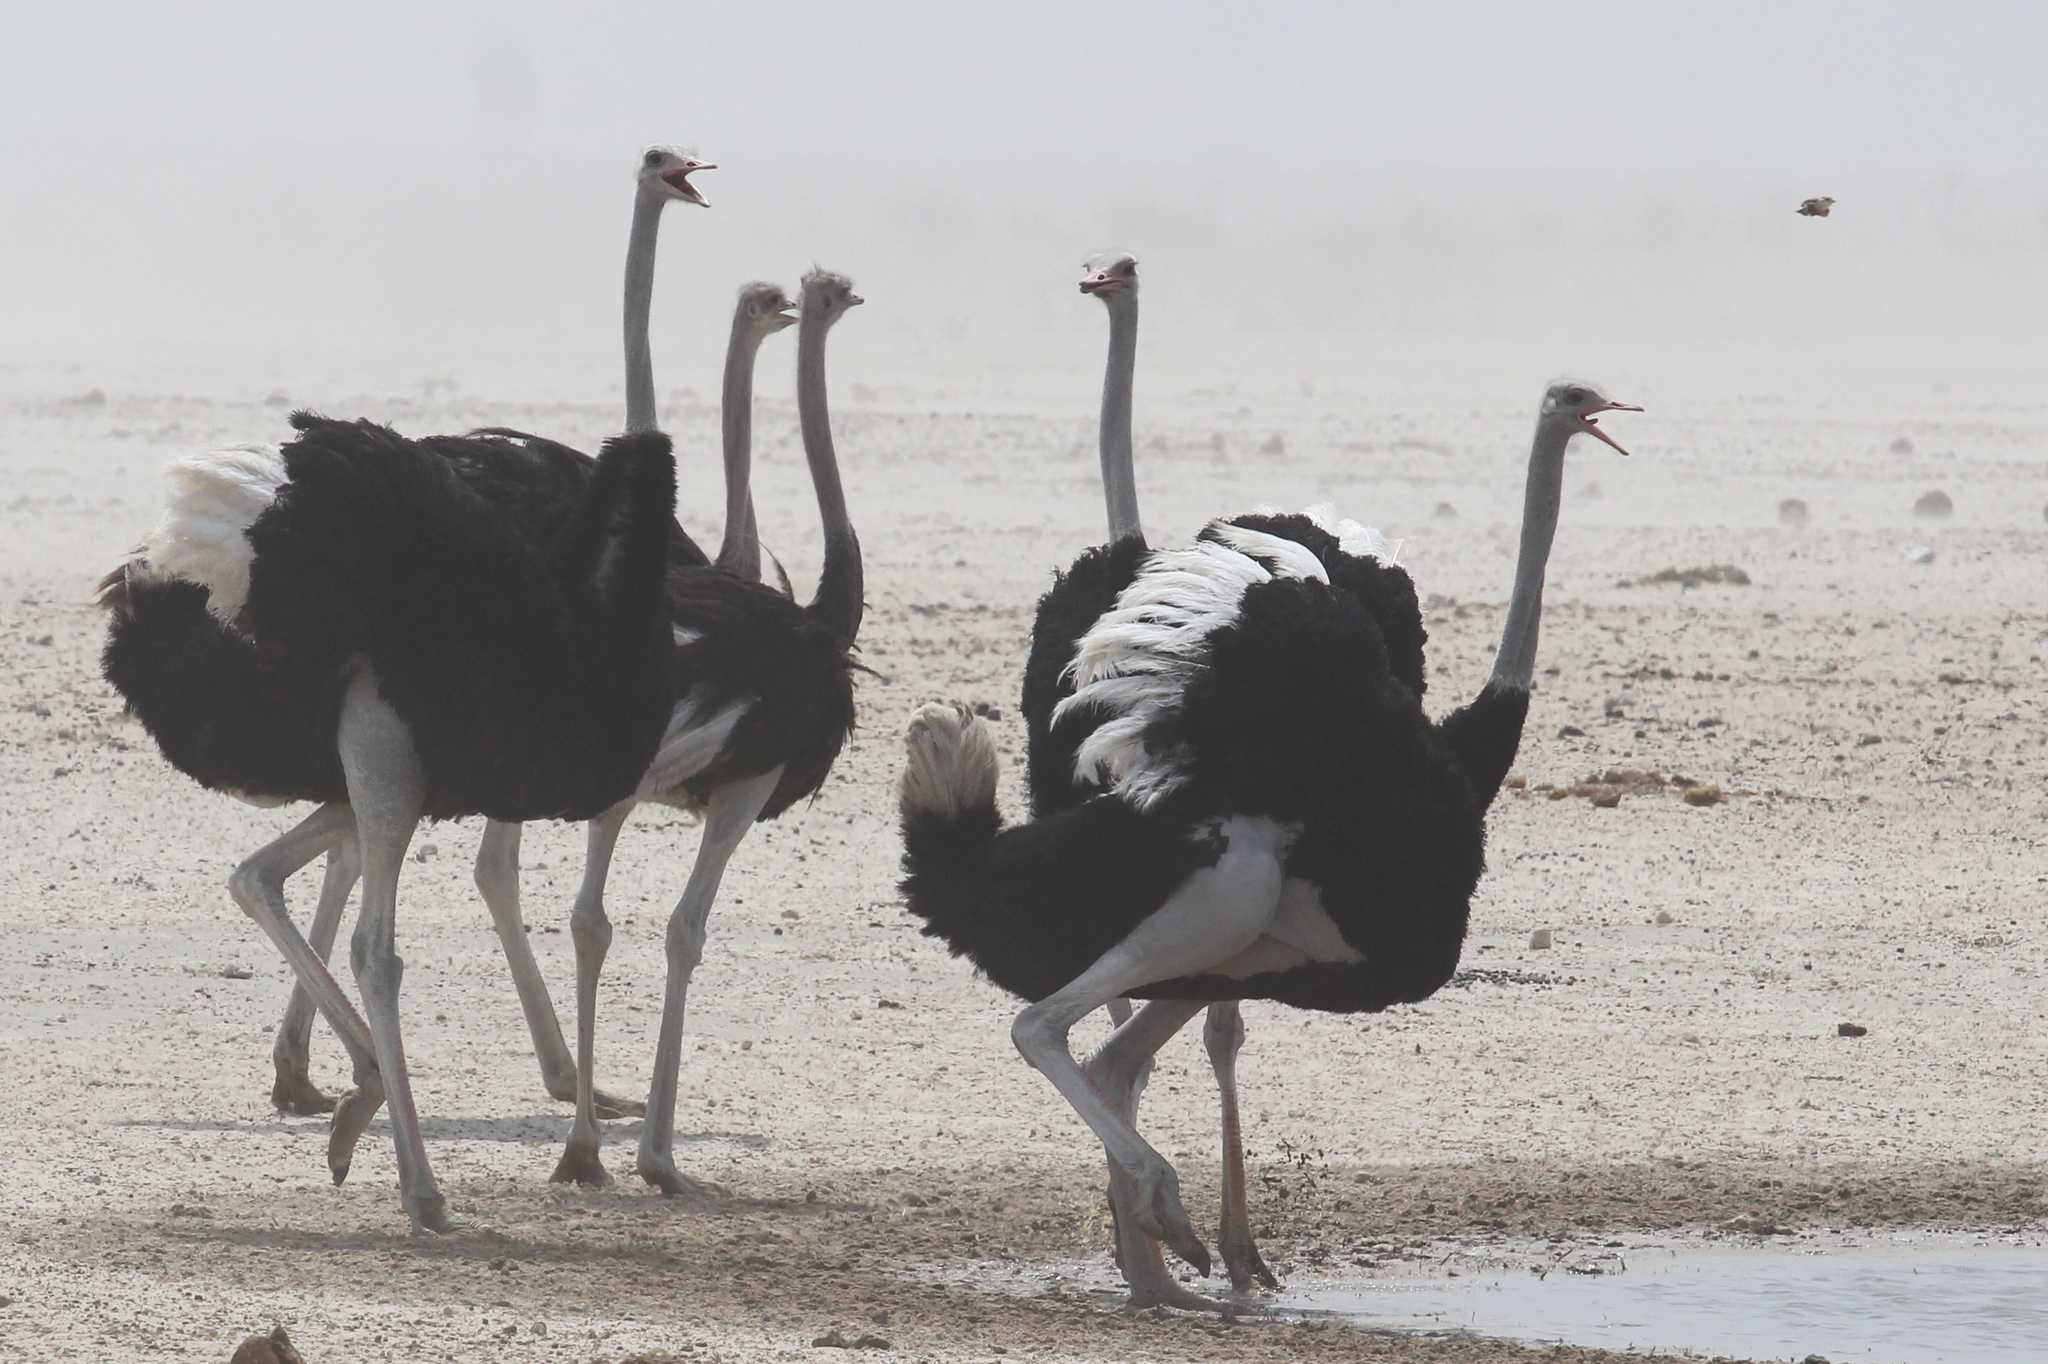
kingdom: Animalia
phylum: Chordata
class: Aves
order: Struthioniformes
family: Struthionidae
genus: Struthio
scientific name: Struthio camelus
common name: Common ostrich
